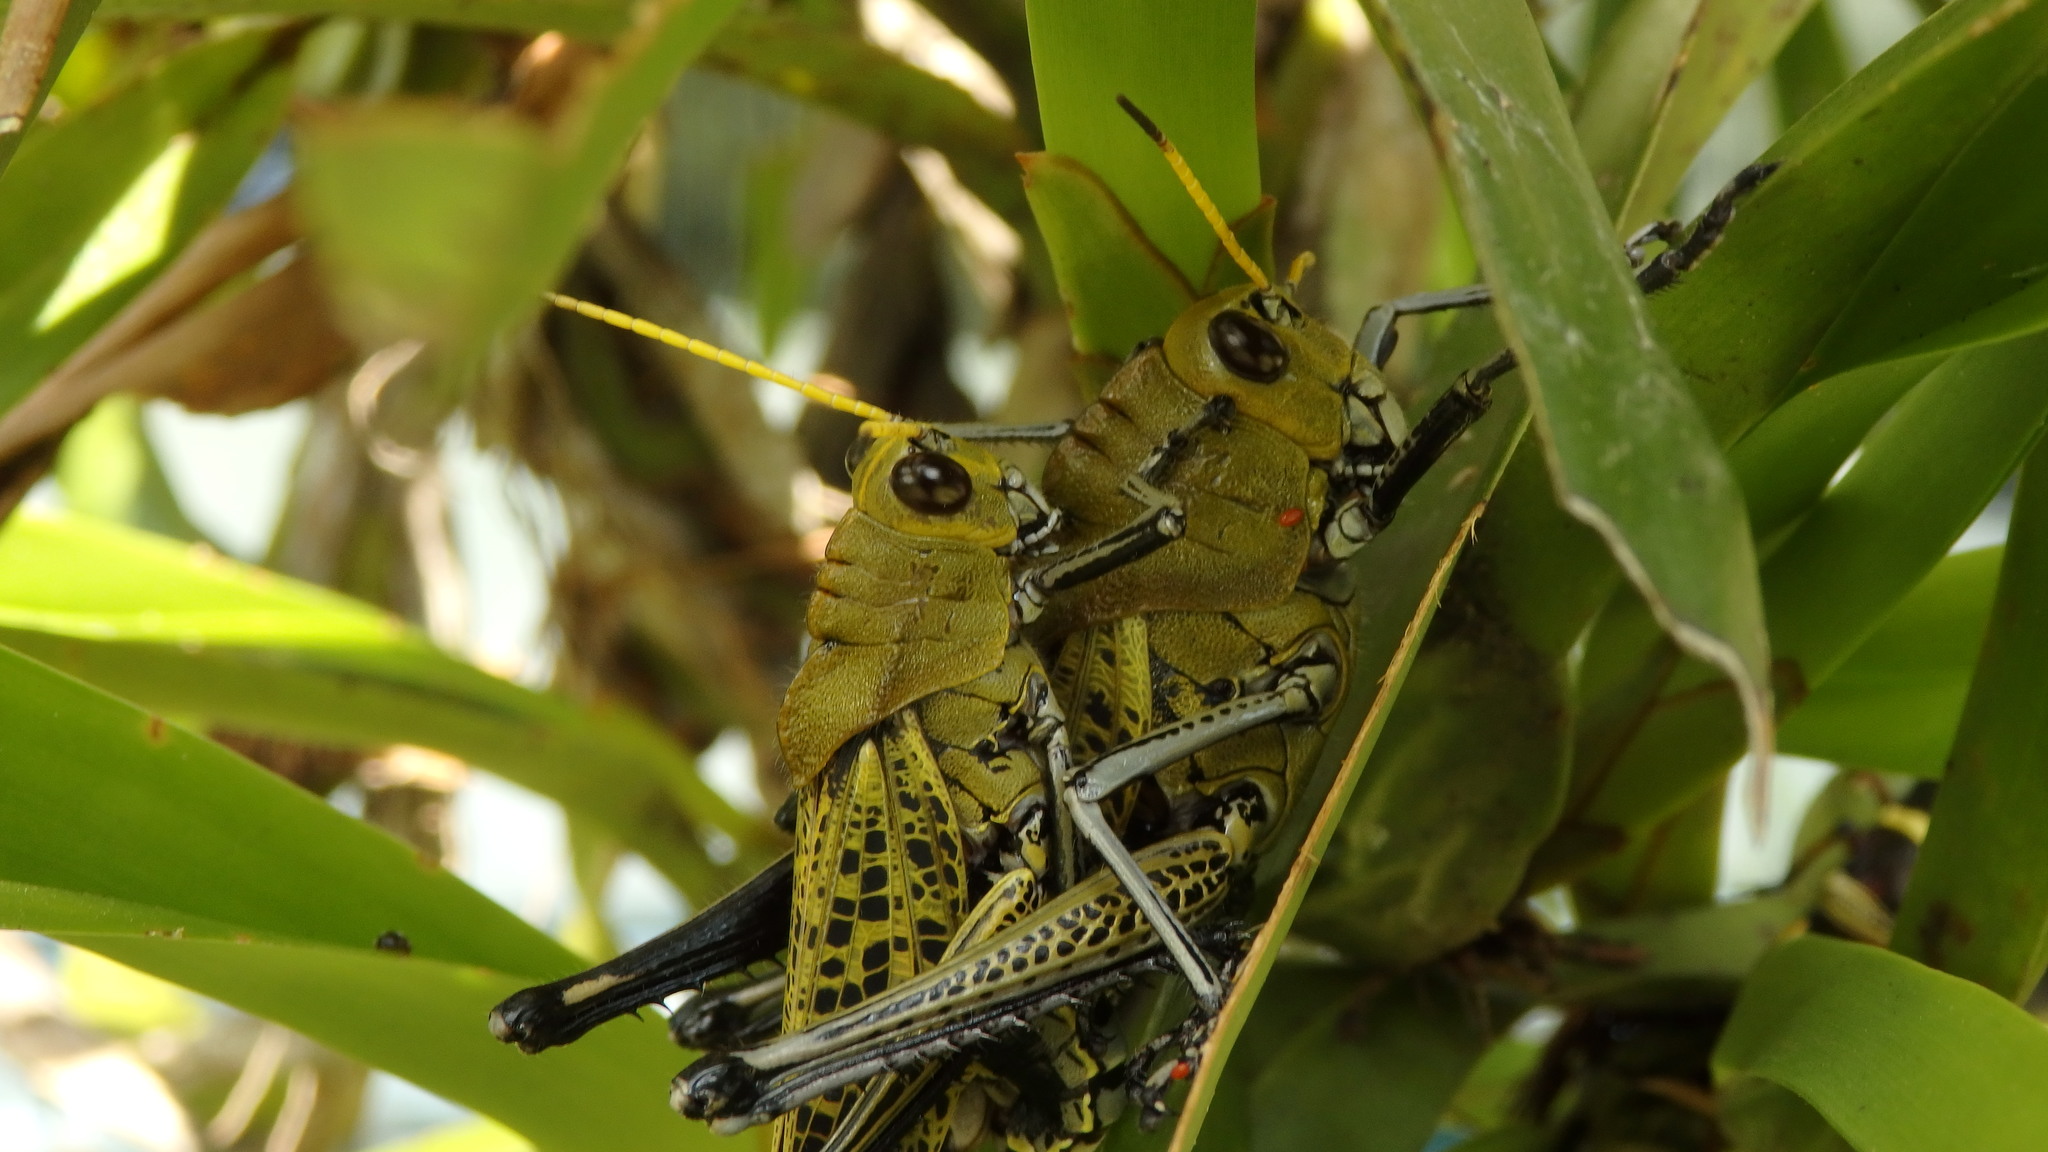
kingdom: Animalia
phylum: Arthropoda
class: Insecta
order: Orthoptera
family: Romaleidae
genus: Romalea
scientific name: Romalea
